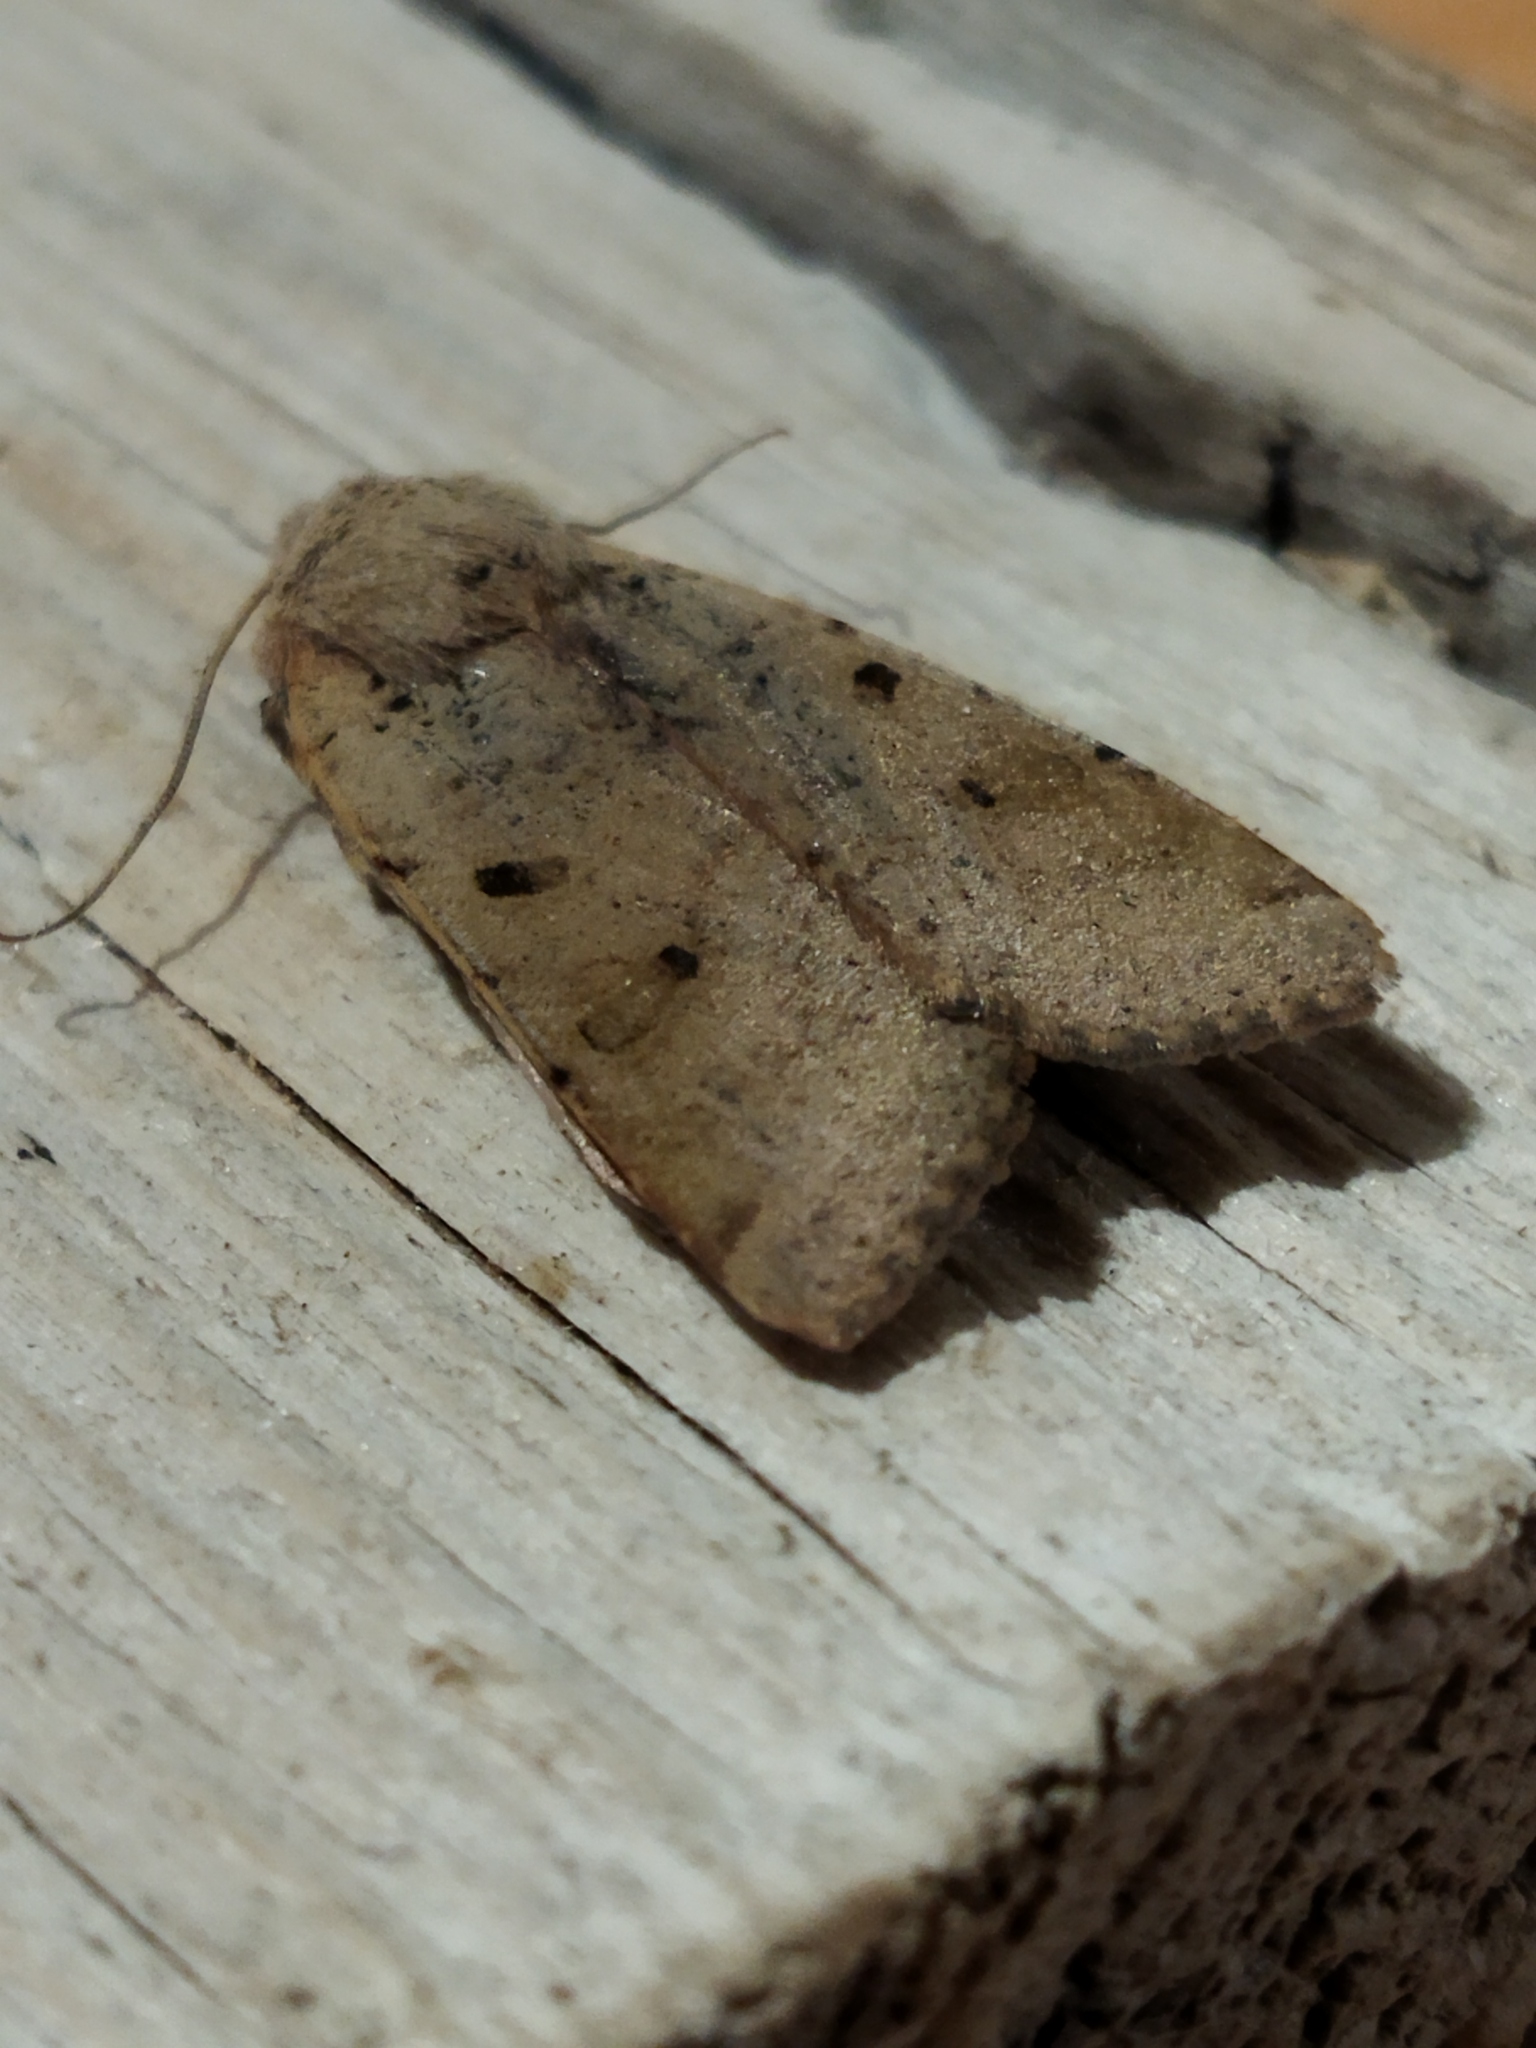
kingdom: Animalia
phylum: Arthropoda
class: Insecta
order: Lepidoptera
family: Noctuidae
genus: Agrochola
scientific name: Agrochola lychnidis
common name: Beaded chestnut
